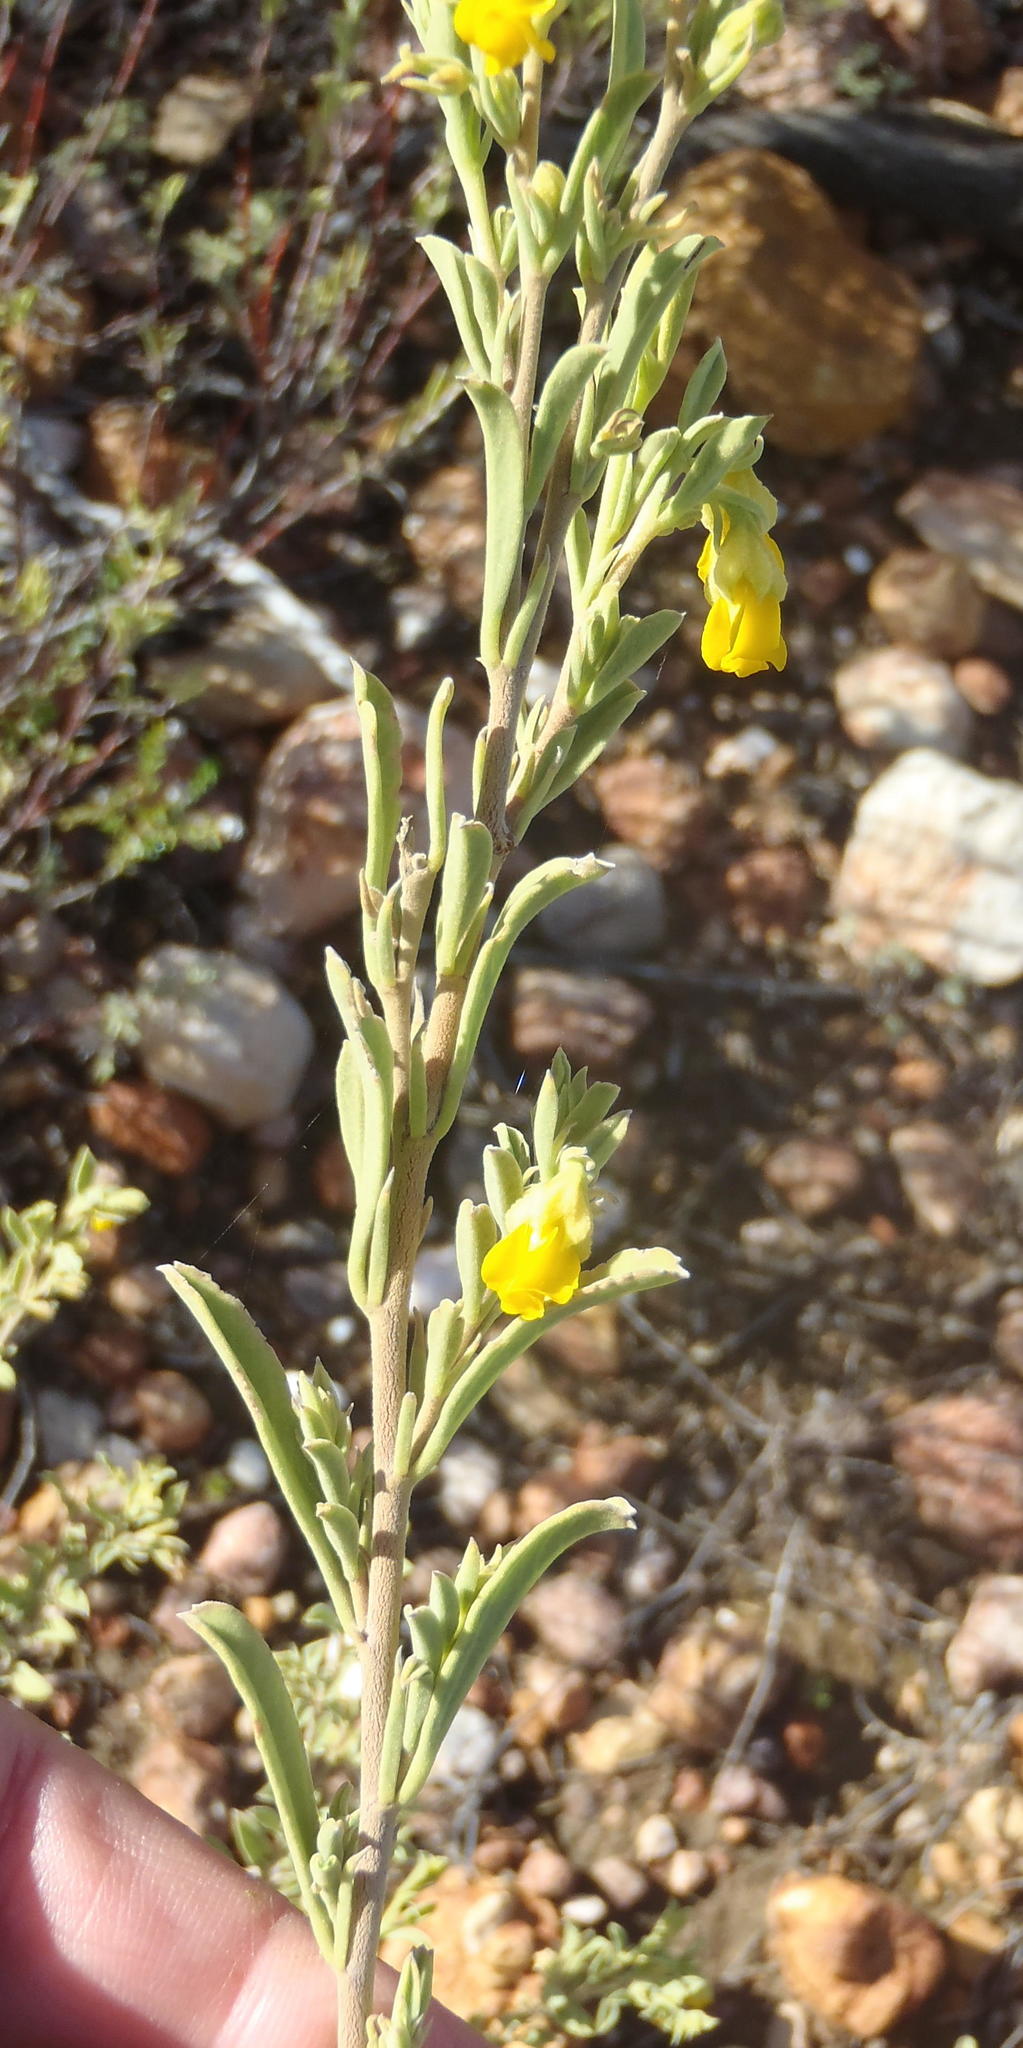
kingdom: Plantae
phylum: Tracheophyta
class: Magnoliopsida
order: Malvales
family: Malvaceae
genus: Hermannia
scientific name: Hermannia odorata
